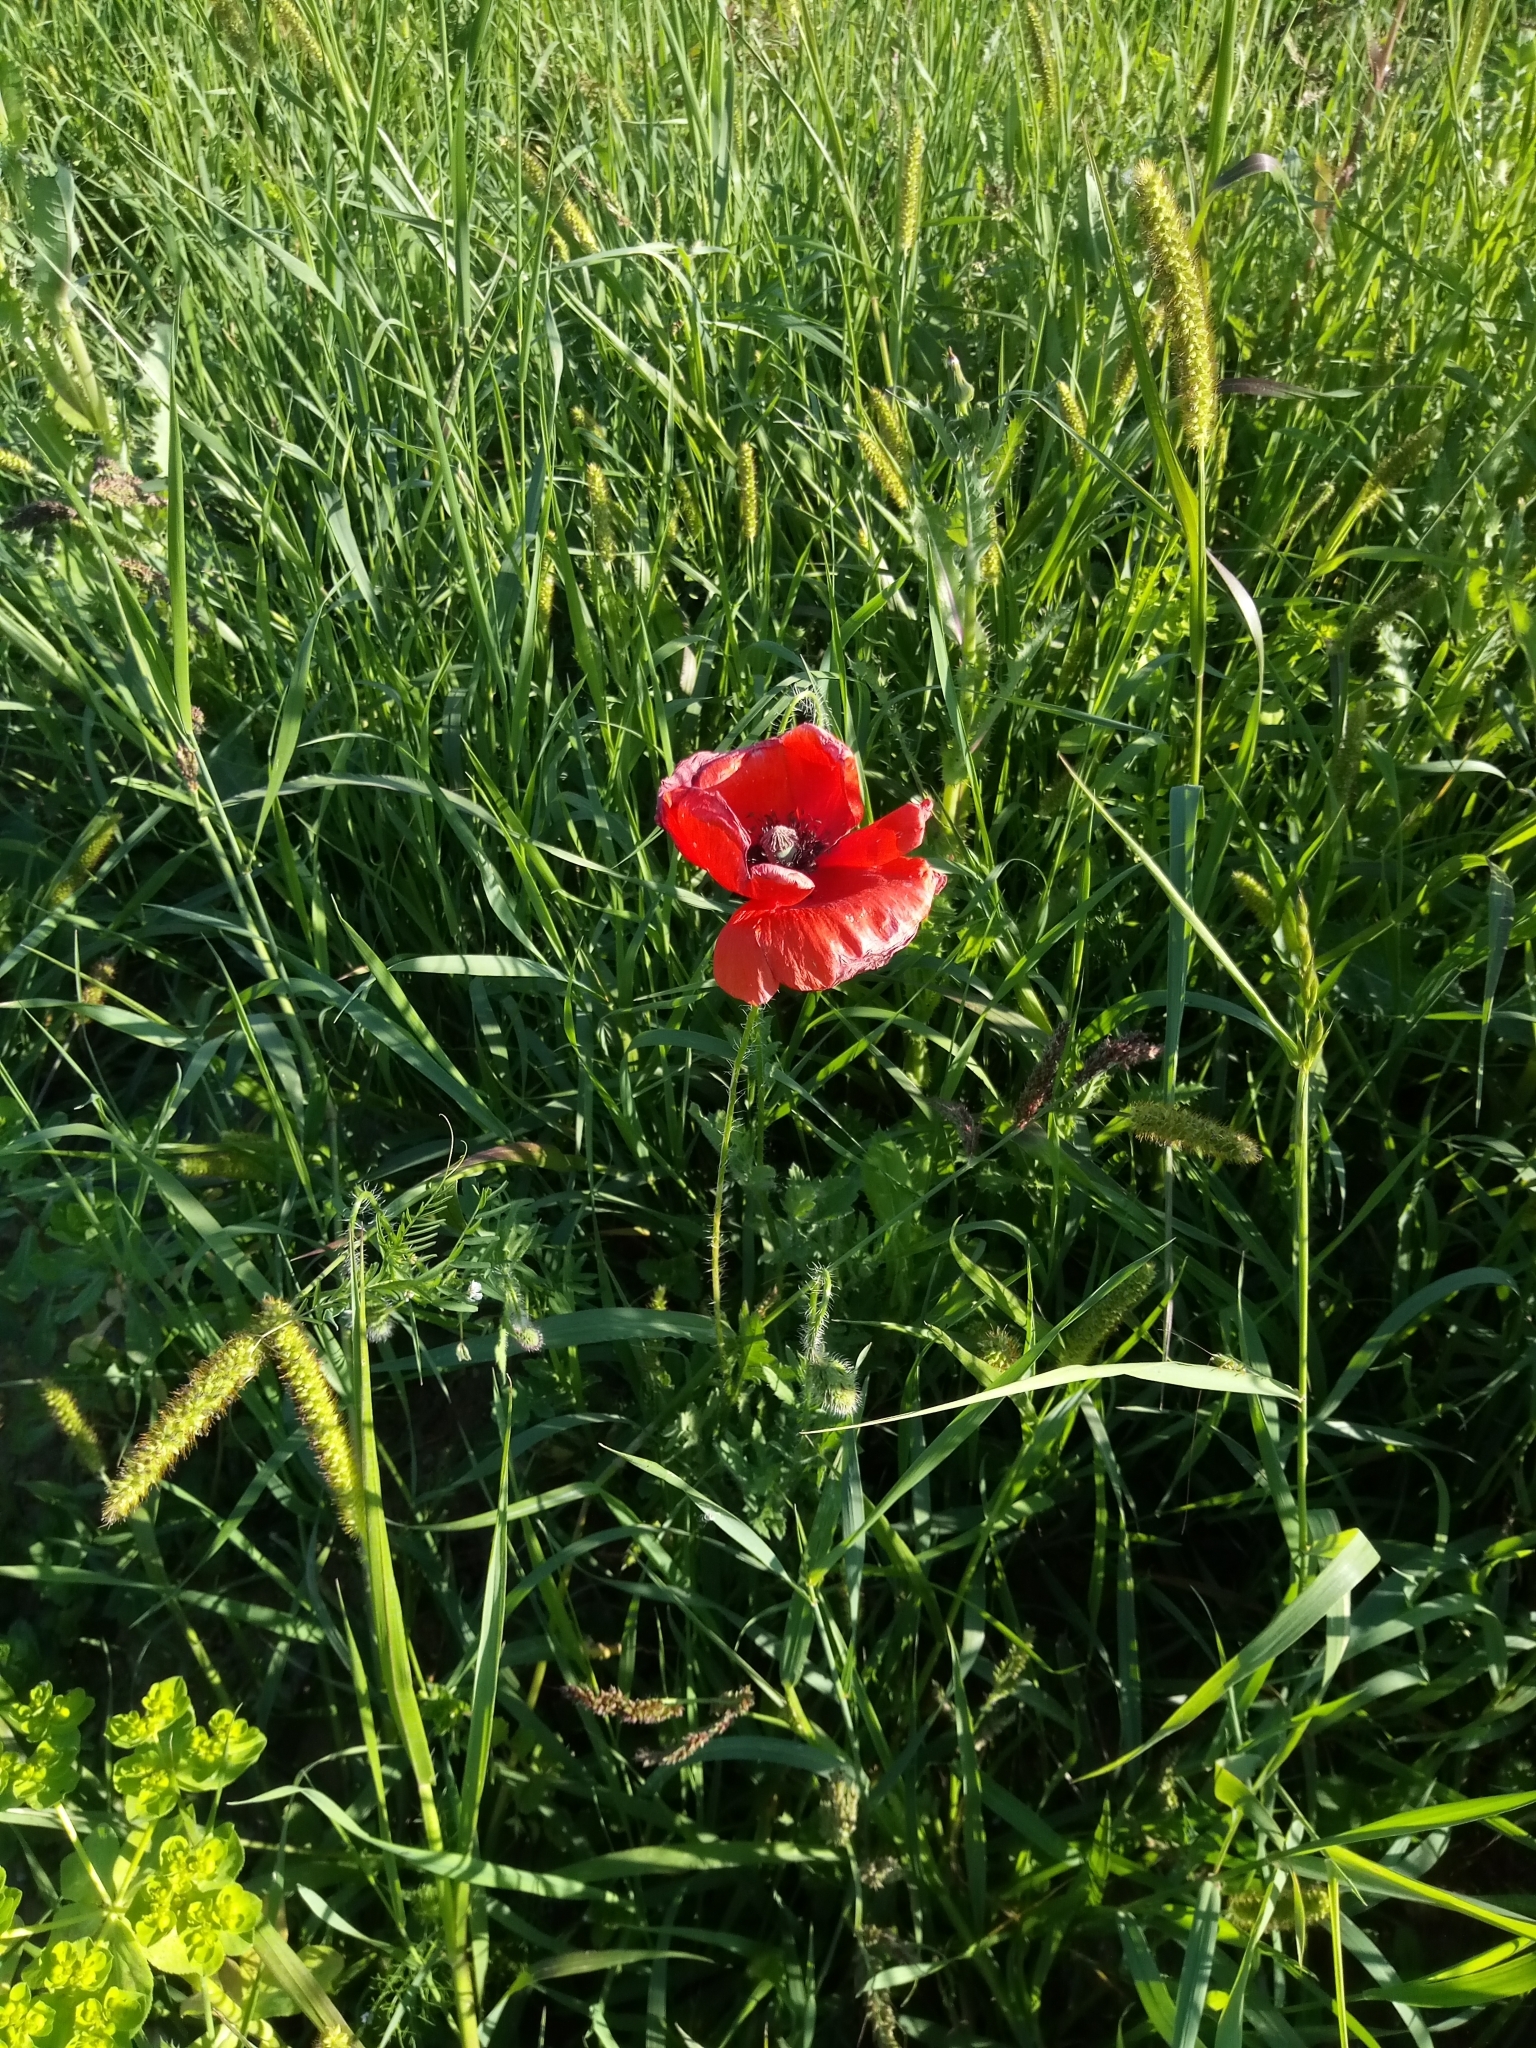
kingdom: Plantae
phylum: Tracheophyta
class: Magnoliopsida
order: Ranunculales
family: Papaveraceae
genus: Papaver
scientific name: Papaver rhoeas
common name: Corn poppy
